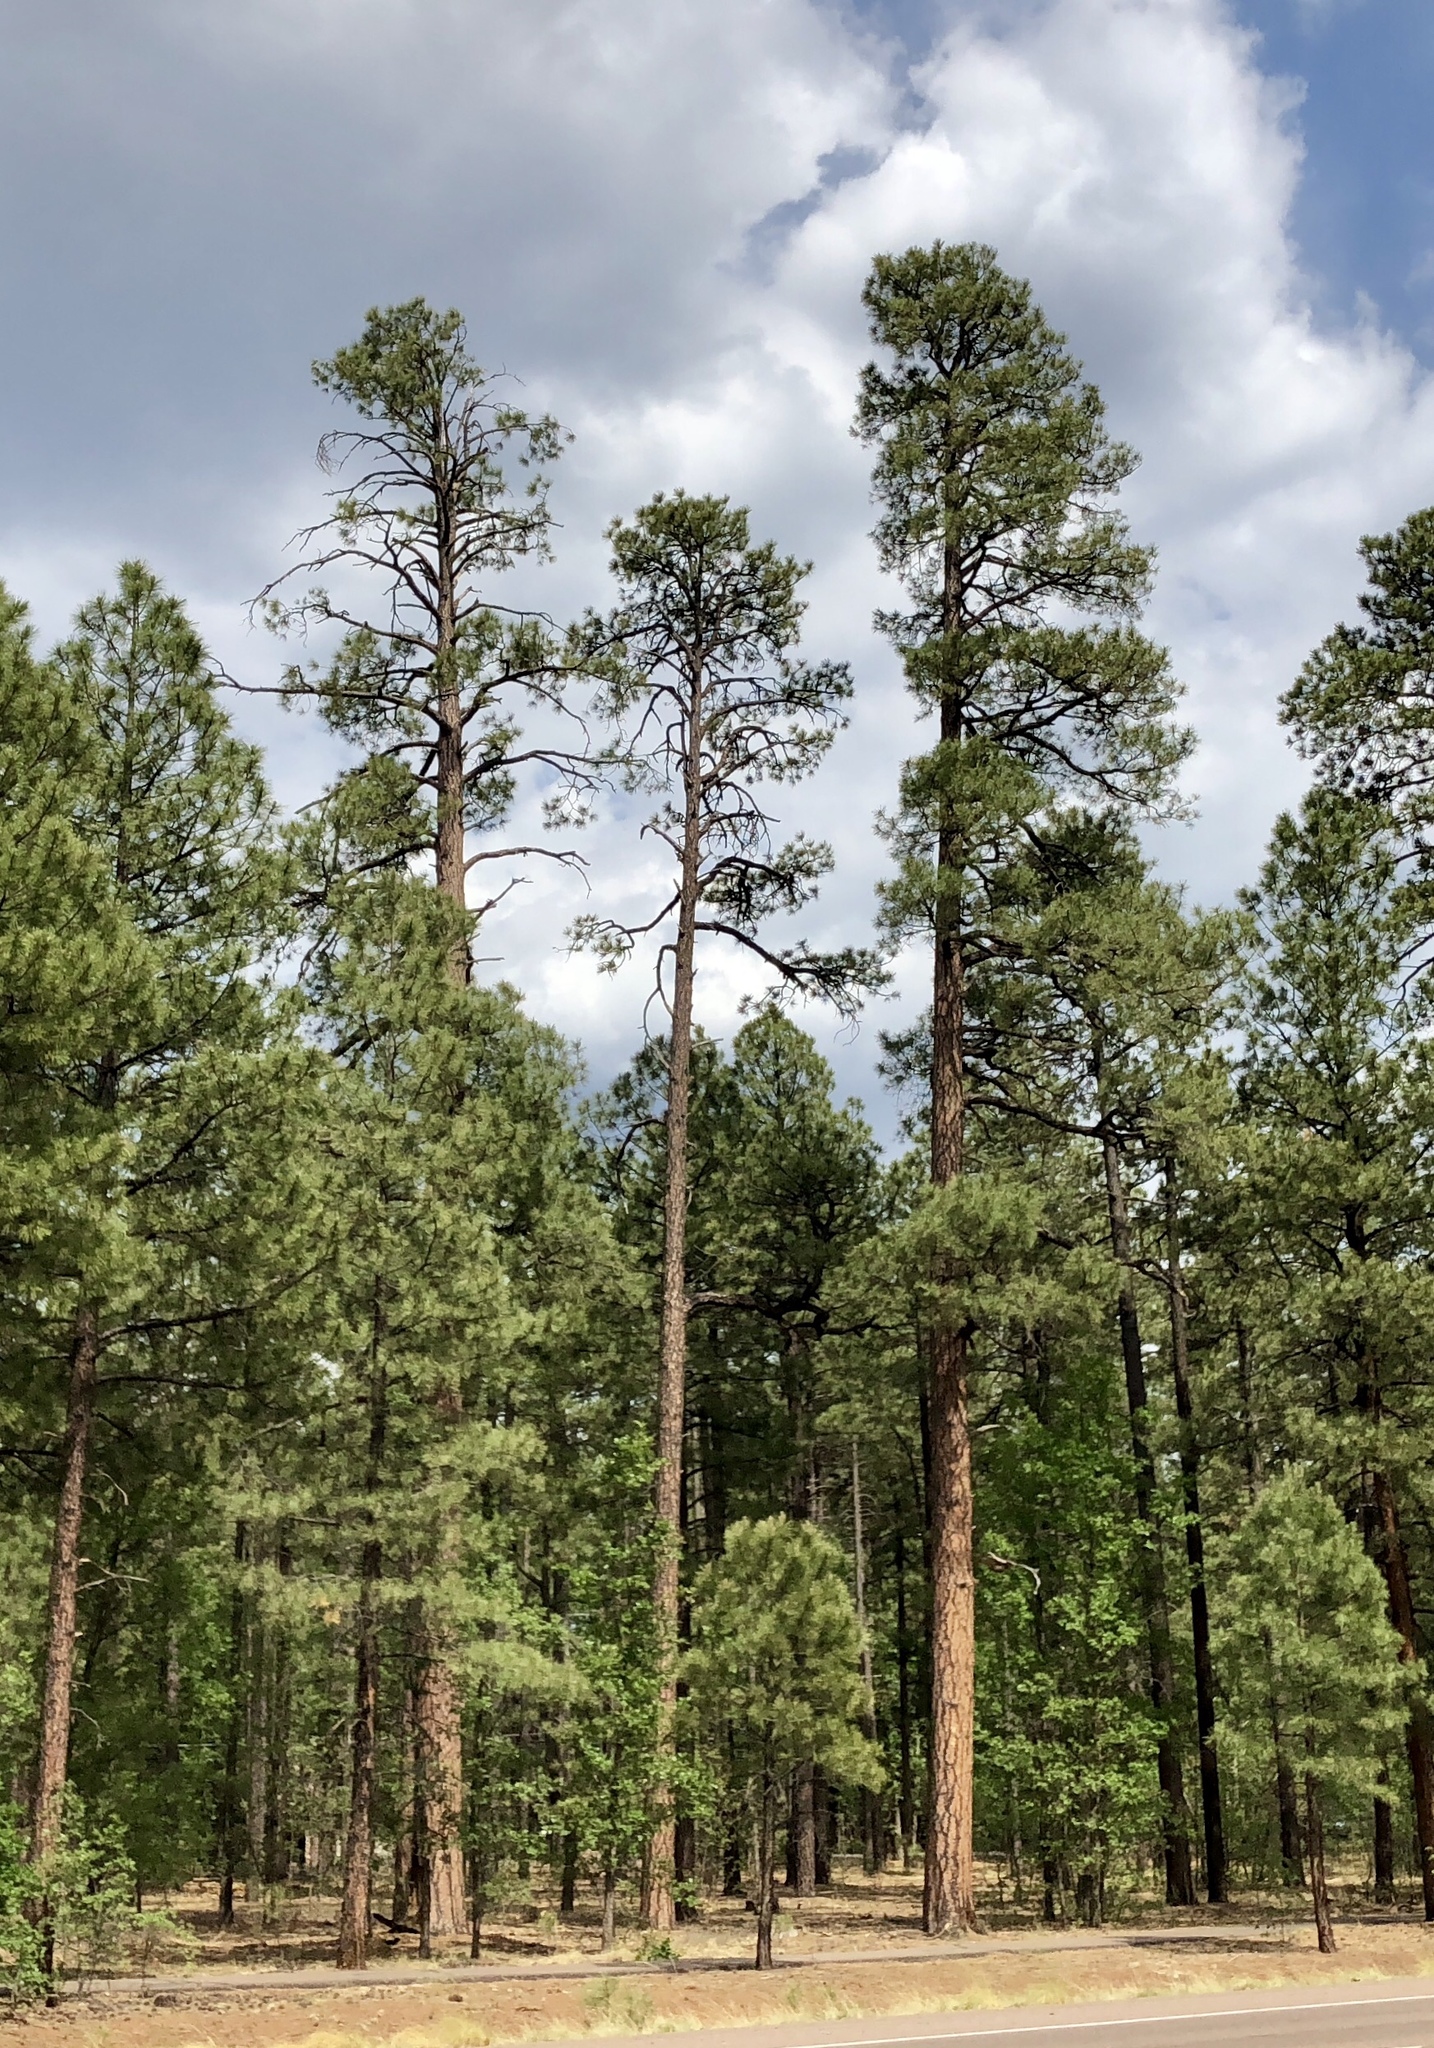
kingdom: Plantae
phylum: Tracheophyta
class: Pinopsida
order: Pinales
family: Pinaceae
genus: Pinus
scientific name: Pinus ponderosa
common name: Western yellow-pine
